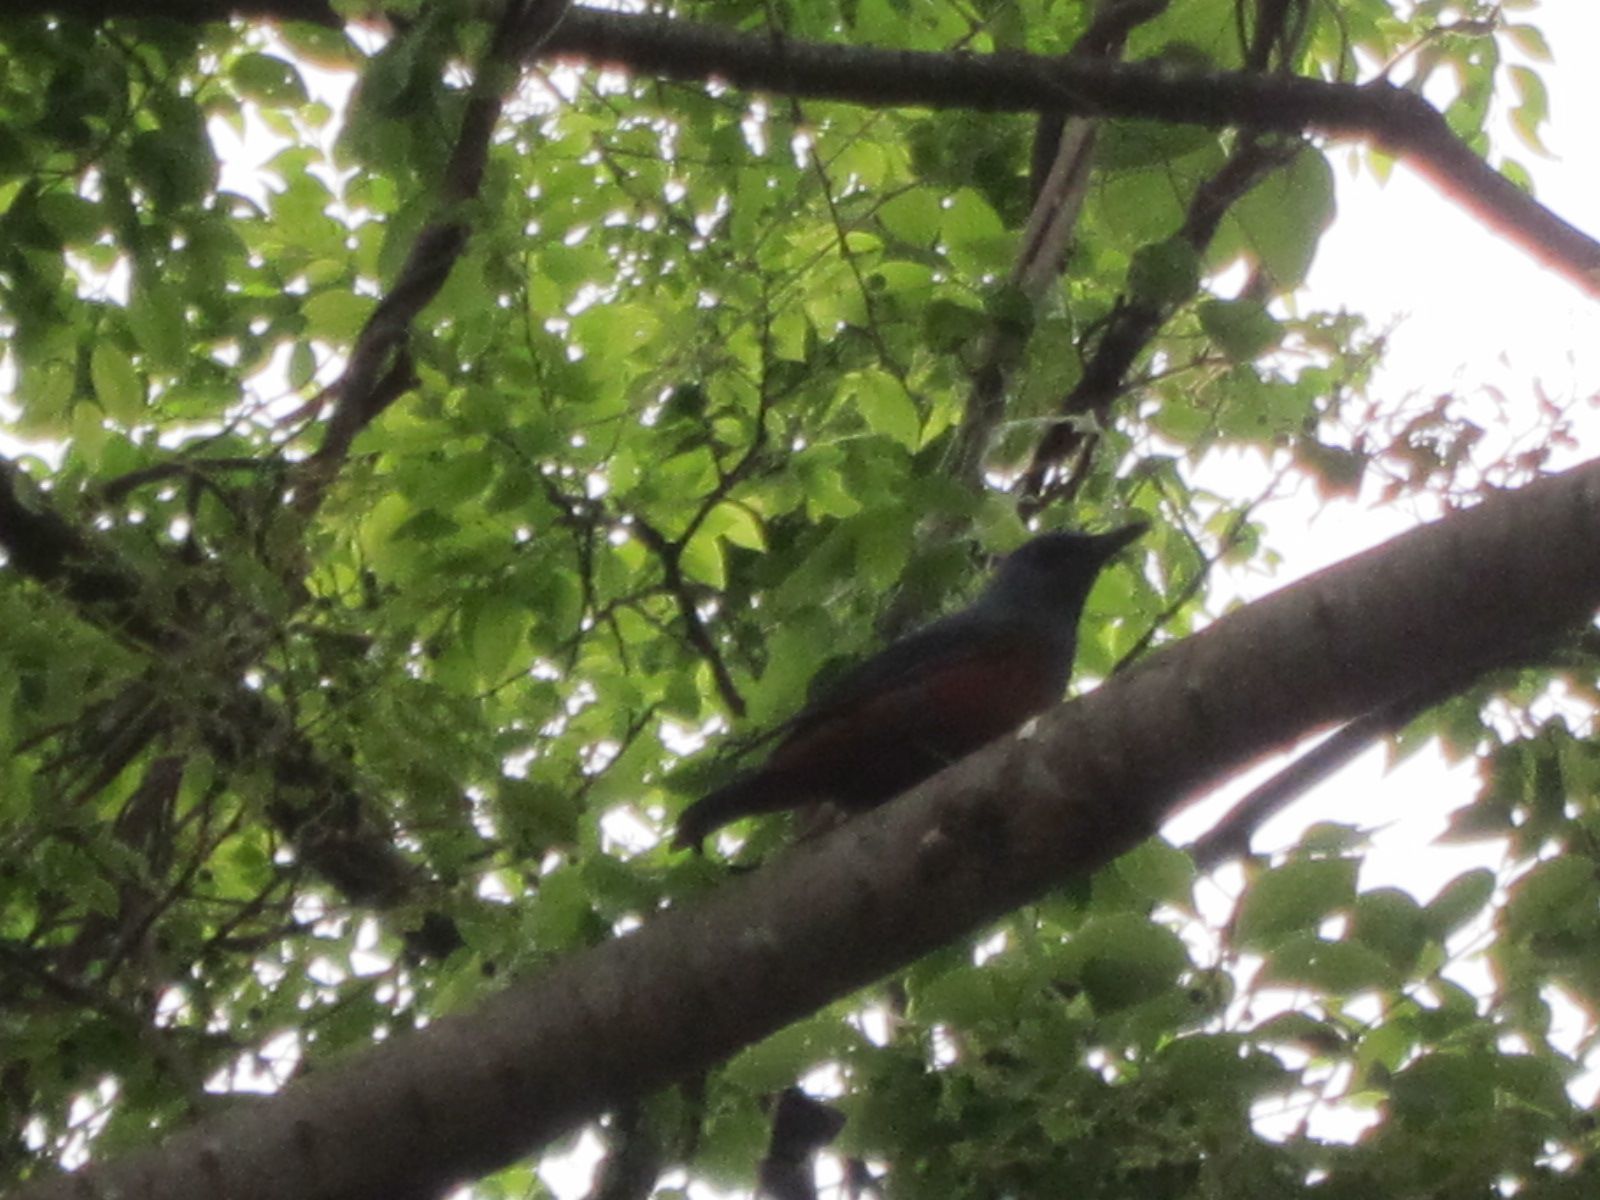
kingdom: Animalia
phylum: Chordata
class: Aves
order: Passeriformes
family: Muscicapidae
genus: Monticola
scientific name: Monticola solitarius
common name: Blue rock thrush
